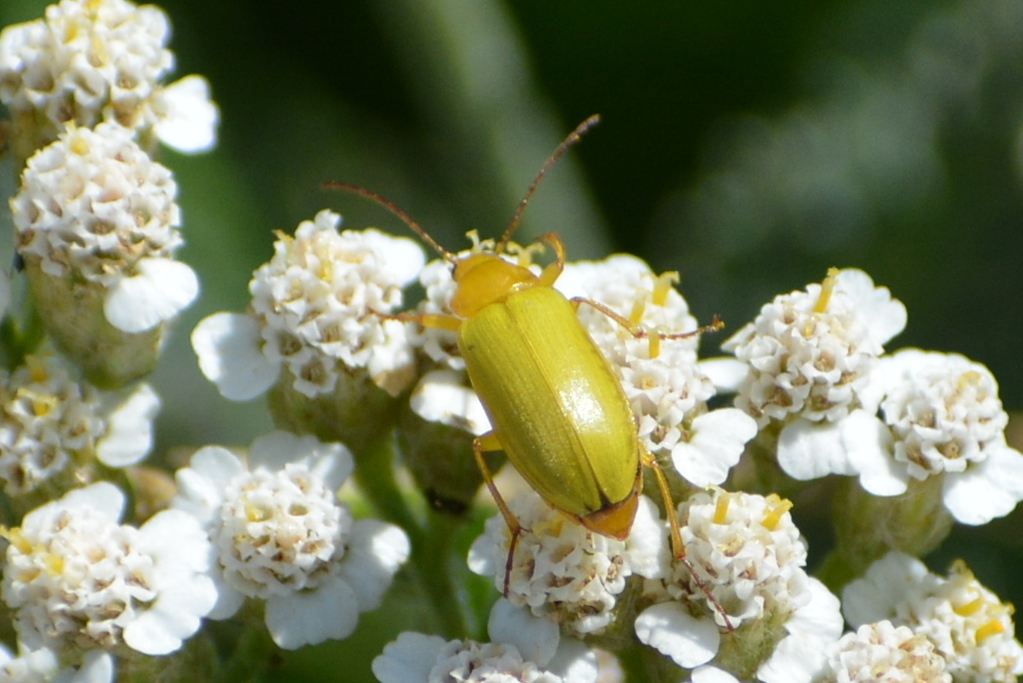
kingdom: Animalia
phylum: Arthropoda
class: Insecta
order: Coleoptera
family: Tenebrionidae
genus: Cteniopus
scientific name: Cteniopus sulphureus
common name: Sulphur beetle
